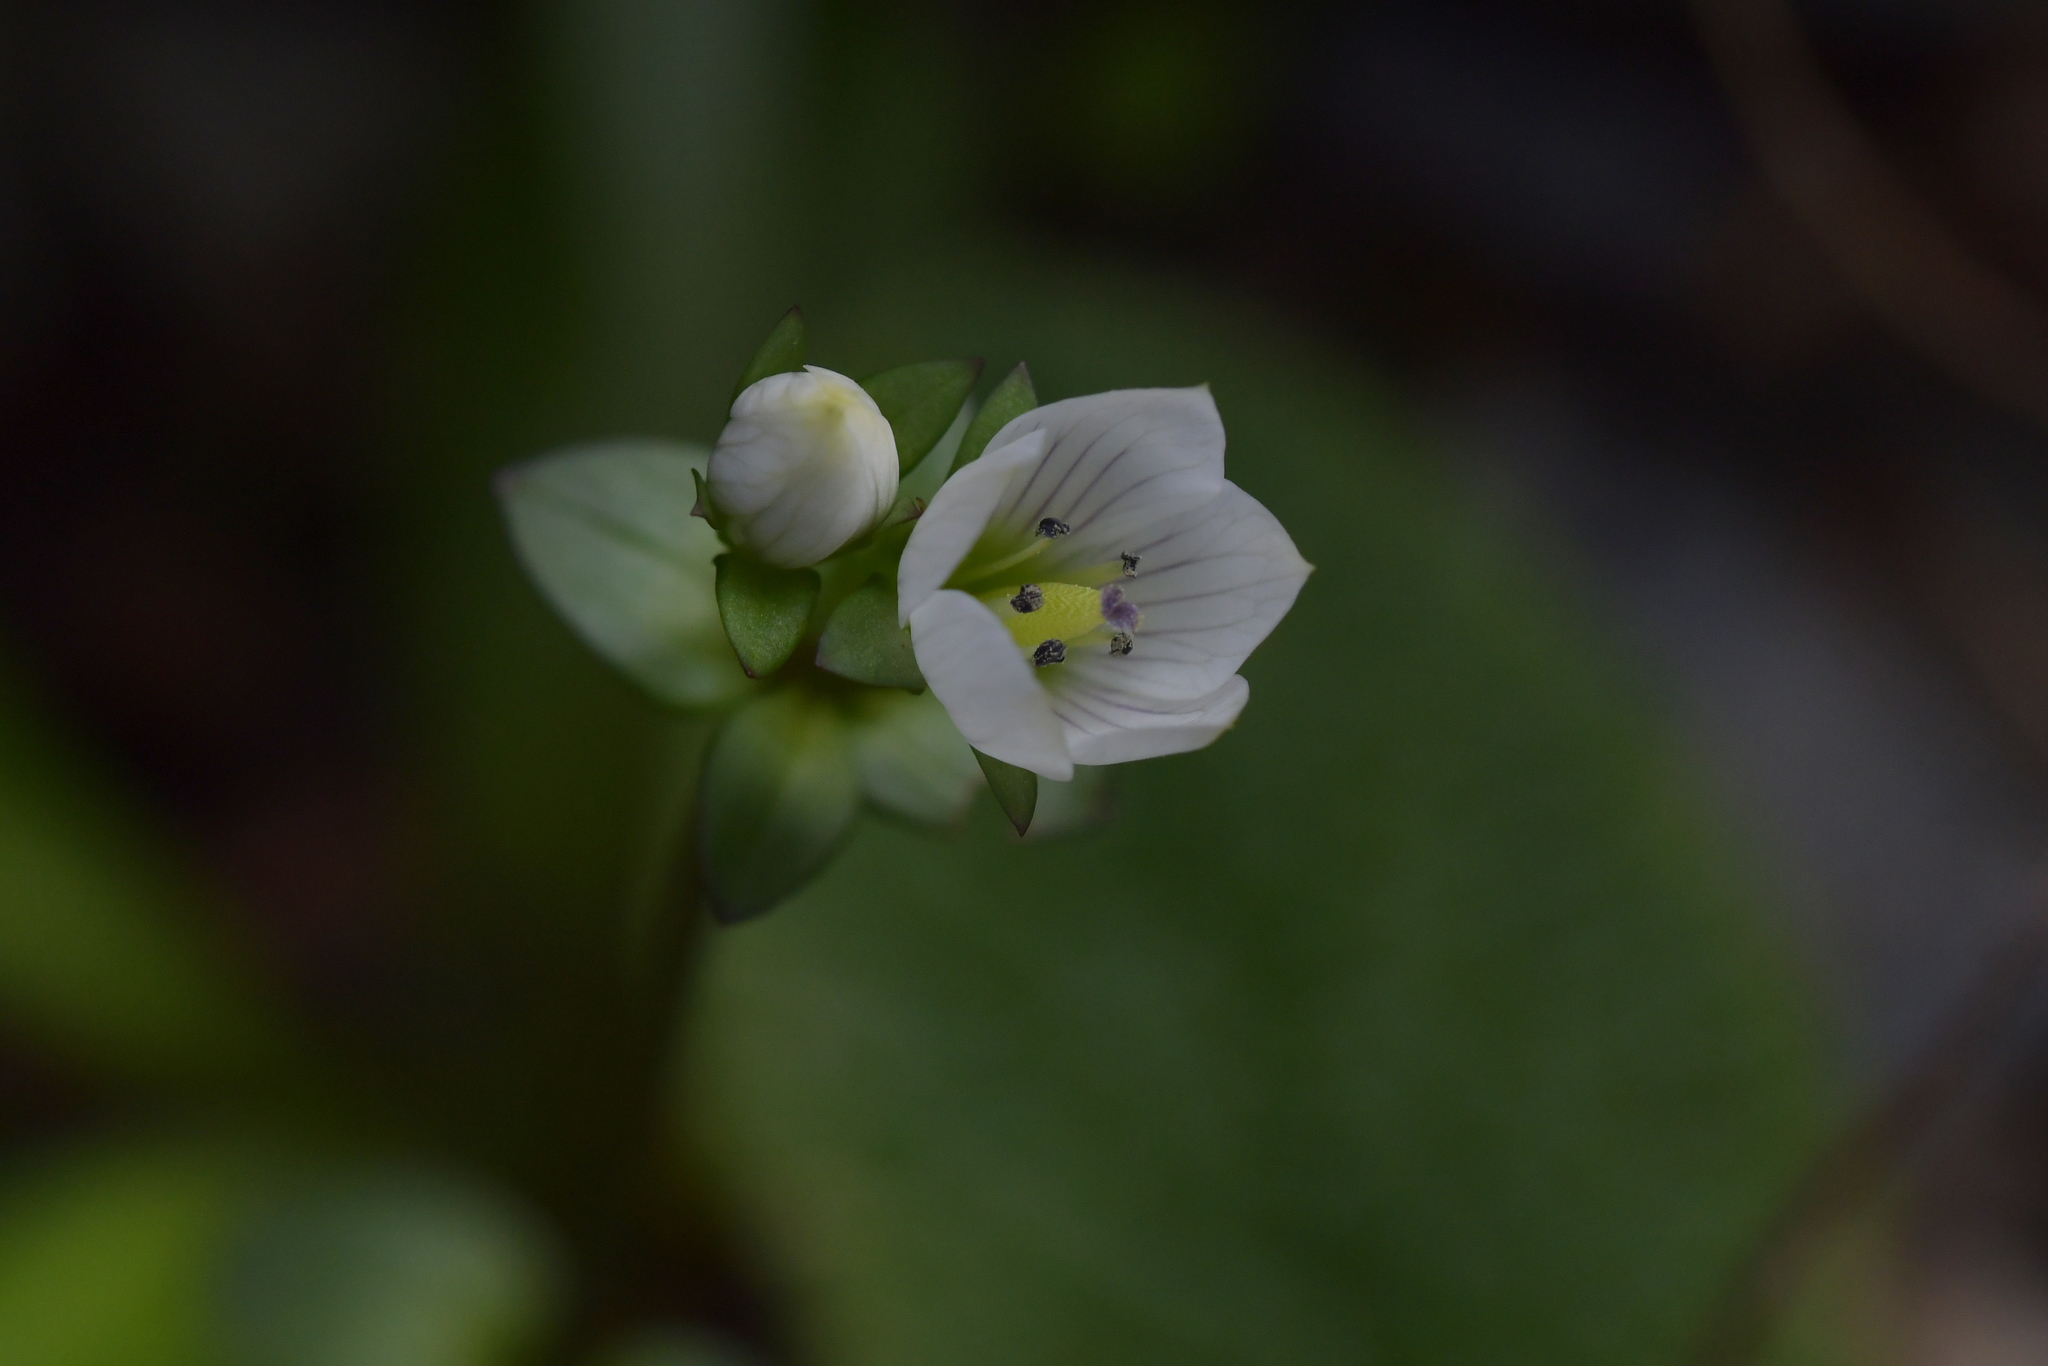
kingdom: Plantae
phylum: Tracheophyta
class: Magnoliopsida
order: Gentianales
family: Gentianaceae
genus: Gentianella
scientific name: Gentianella chathamica
